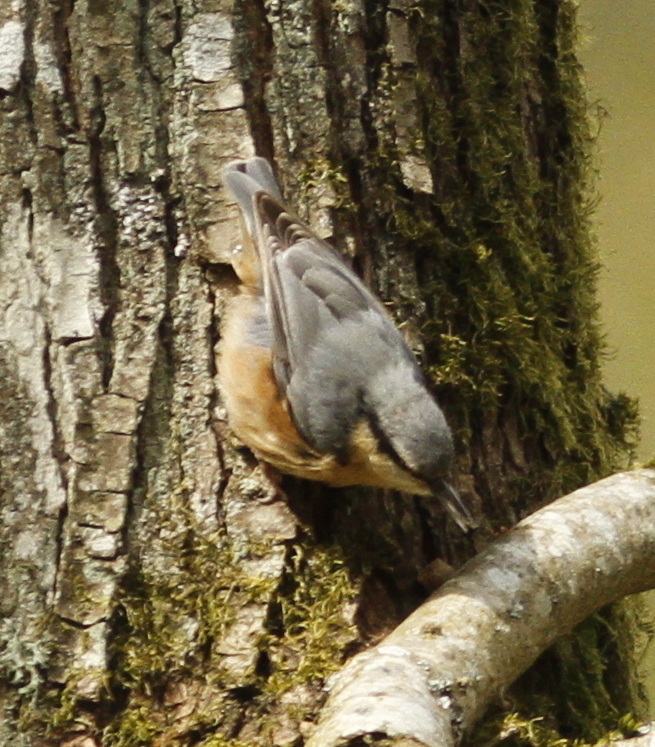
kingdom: Animalia
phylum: Chordata
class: Aves
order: Passeriformes
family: Sittidae
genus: Sitta
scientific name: Sitta europaea
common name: Eurasian nuthatch
